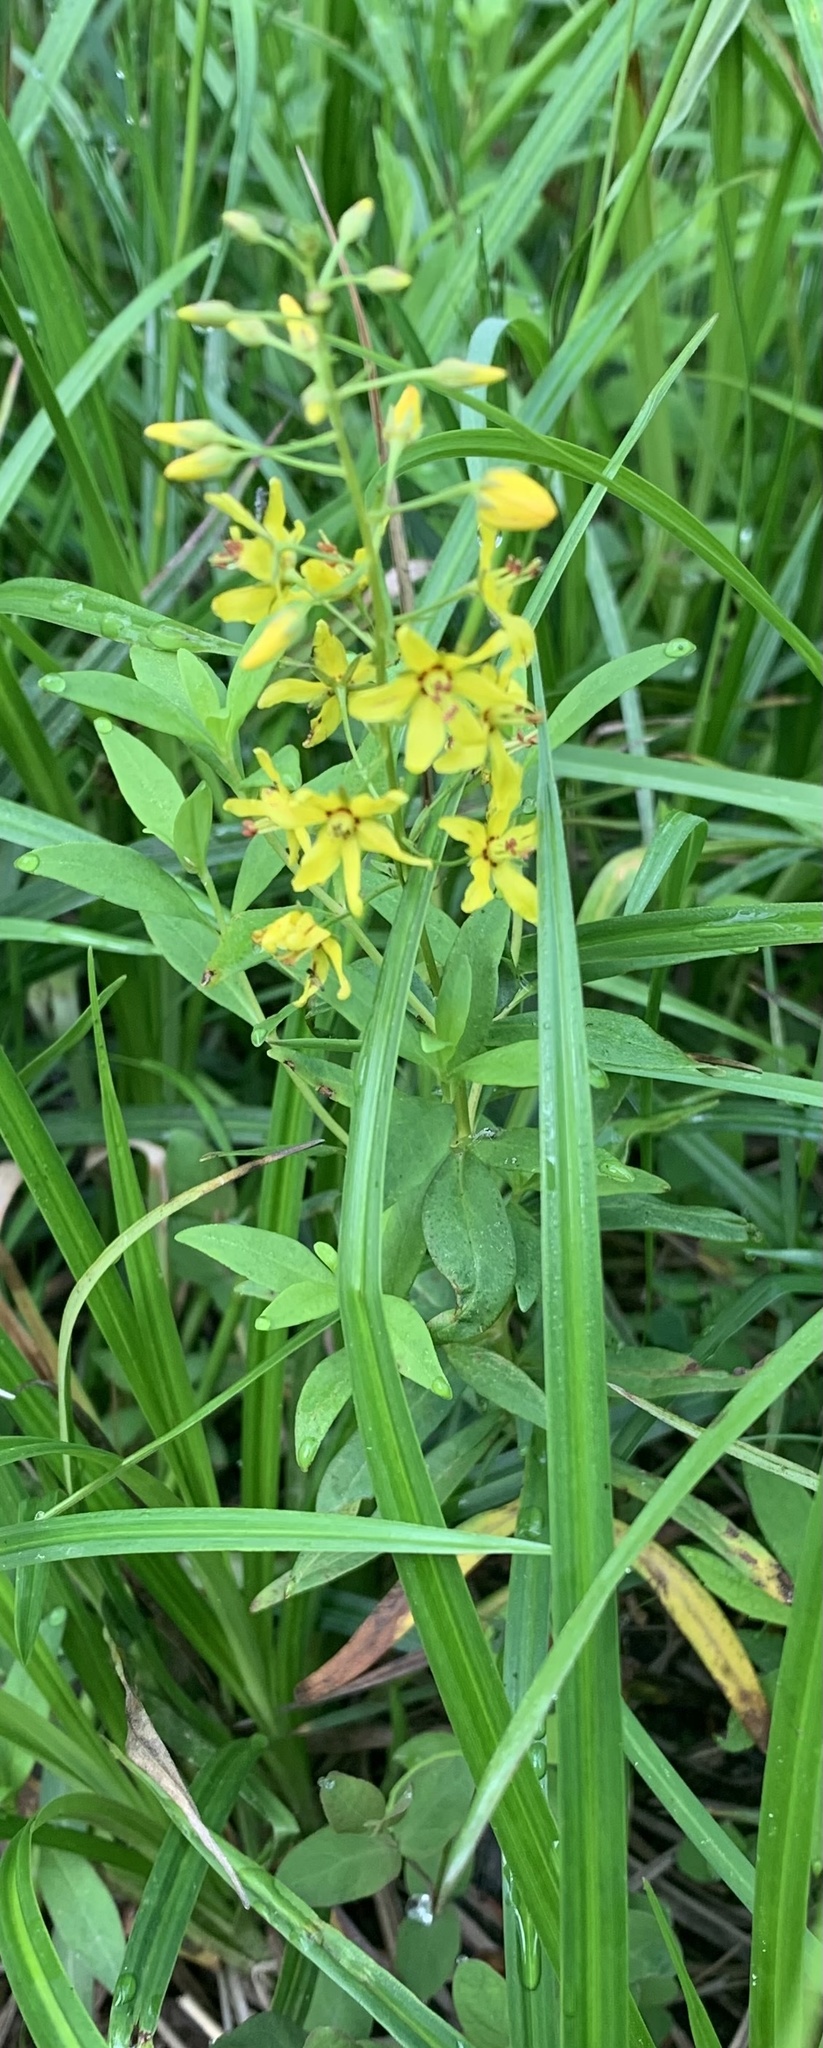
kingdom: Plantae
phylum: Tracheophyta
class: Magnoliopsida
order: Ericales
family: Primulaceae
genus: Lysimachia
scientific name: Lysimachia terrestris
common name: Lake loosestrife
